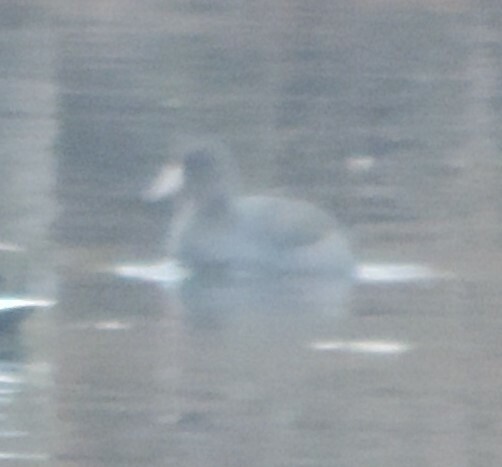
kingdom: Animalia
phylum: Chordata
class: Aves
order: Gruiformes
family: Rallidae
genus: Fulica
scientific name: Fulica americana
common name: American coot
